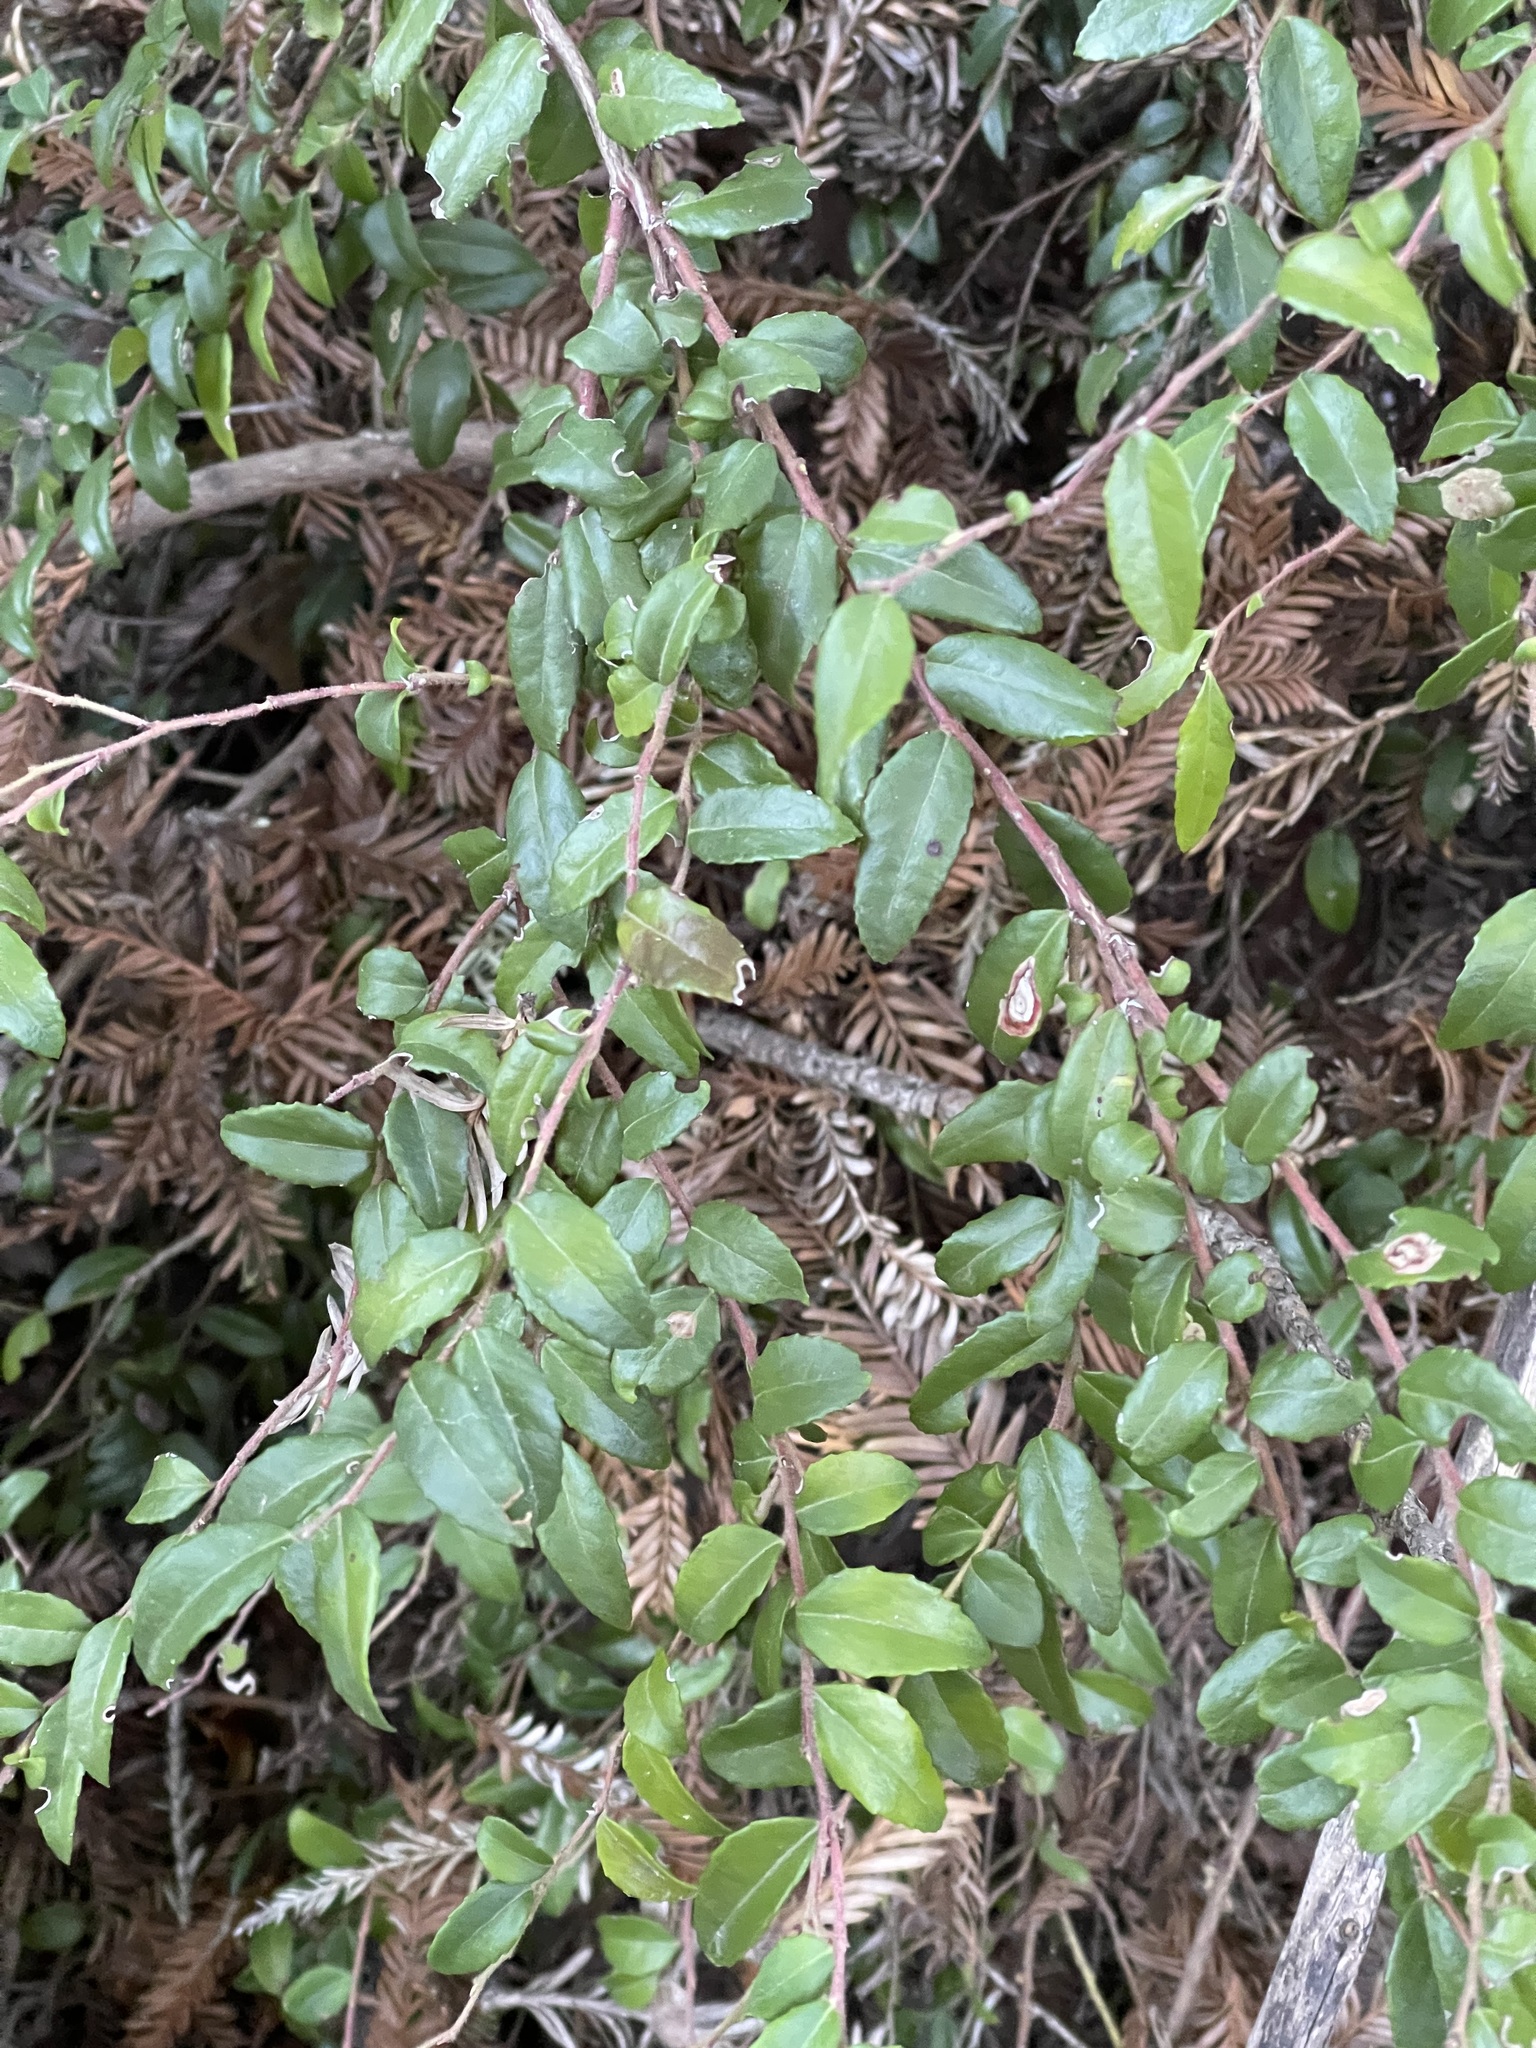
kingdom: Plantae
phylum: Tracheophyta
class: Magnoliopsida
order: Ericales
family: Ericaceae
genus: Vaccinium
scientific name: Vaccinium ovatum
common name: California-huckleberry
